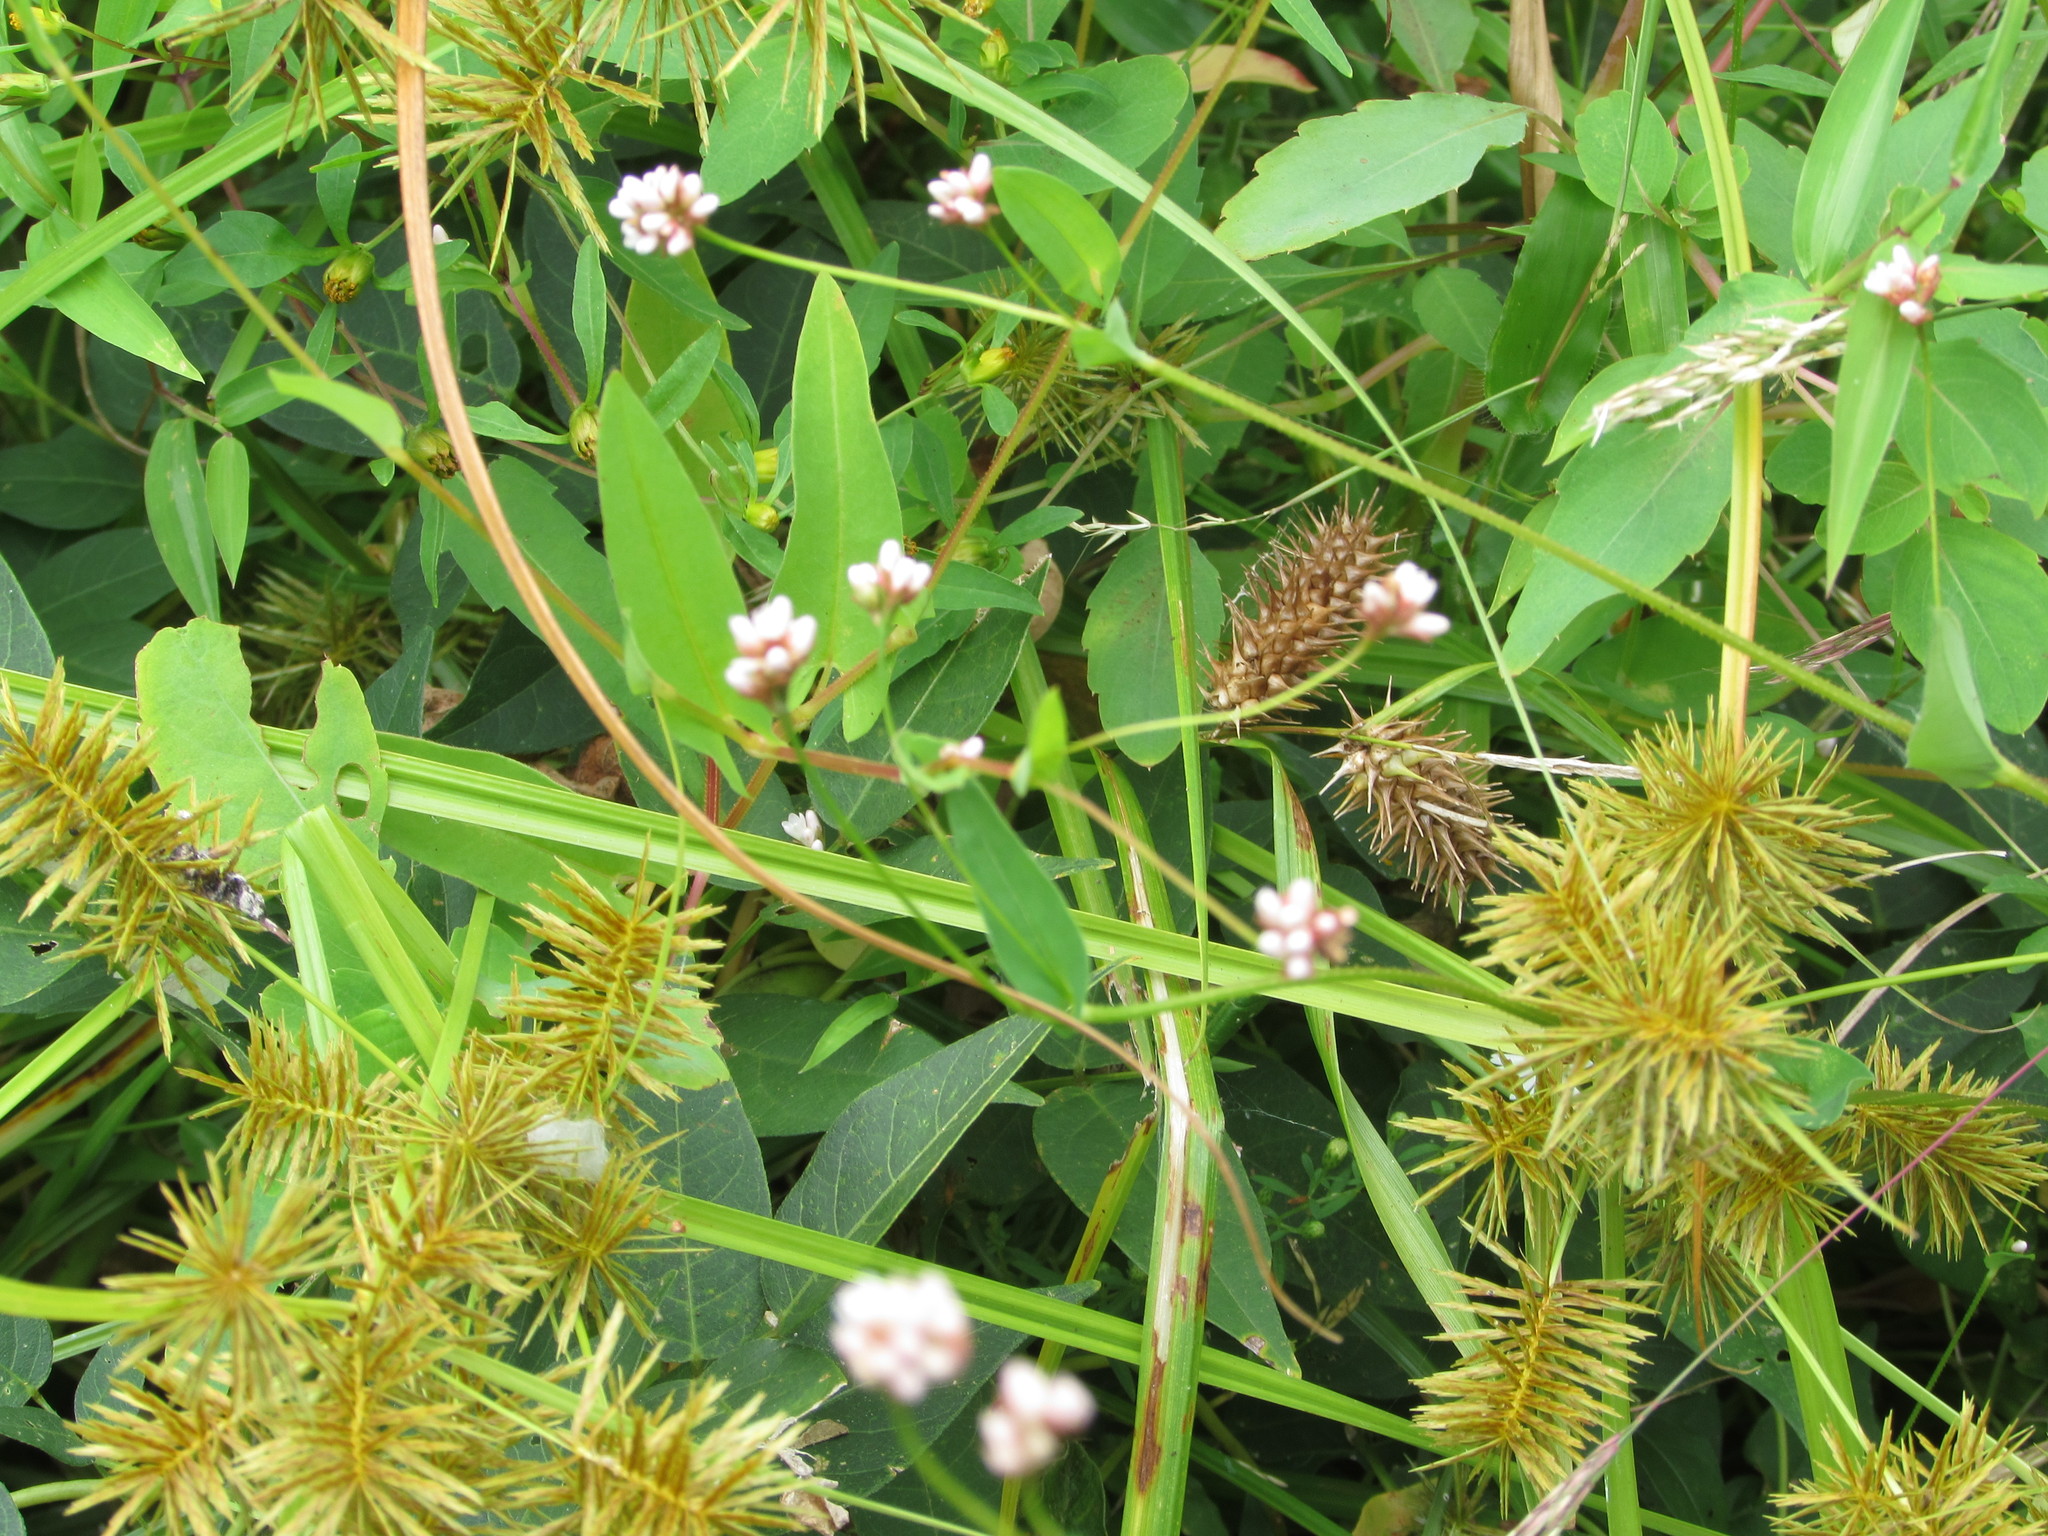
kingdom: Plantae
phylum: Tracheophyta
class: Magnoliopsida
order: Caryophyllales
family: Polygonaceae
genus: Persicaria
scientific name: Persicaria sagittata
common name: American tearthumb
